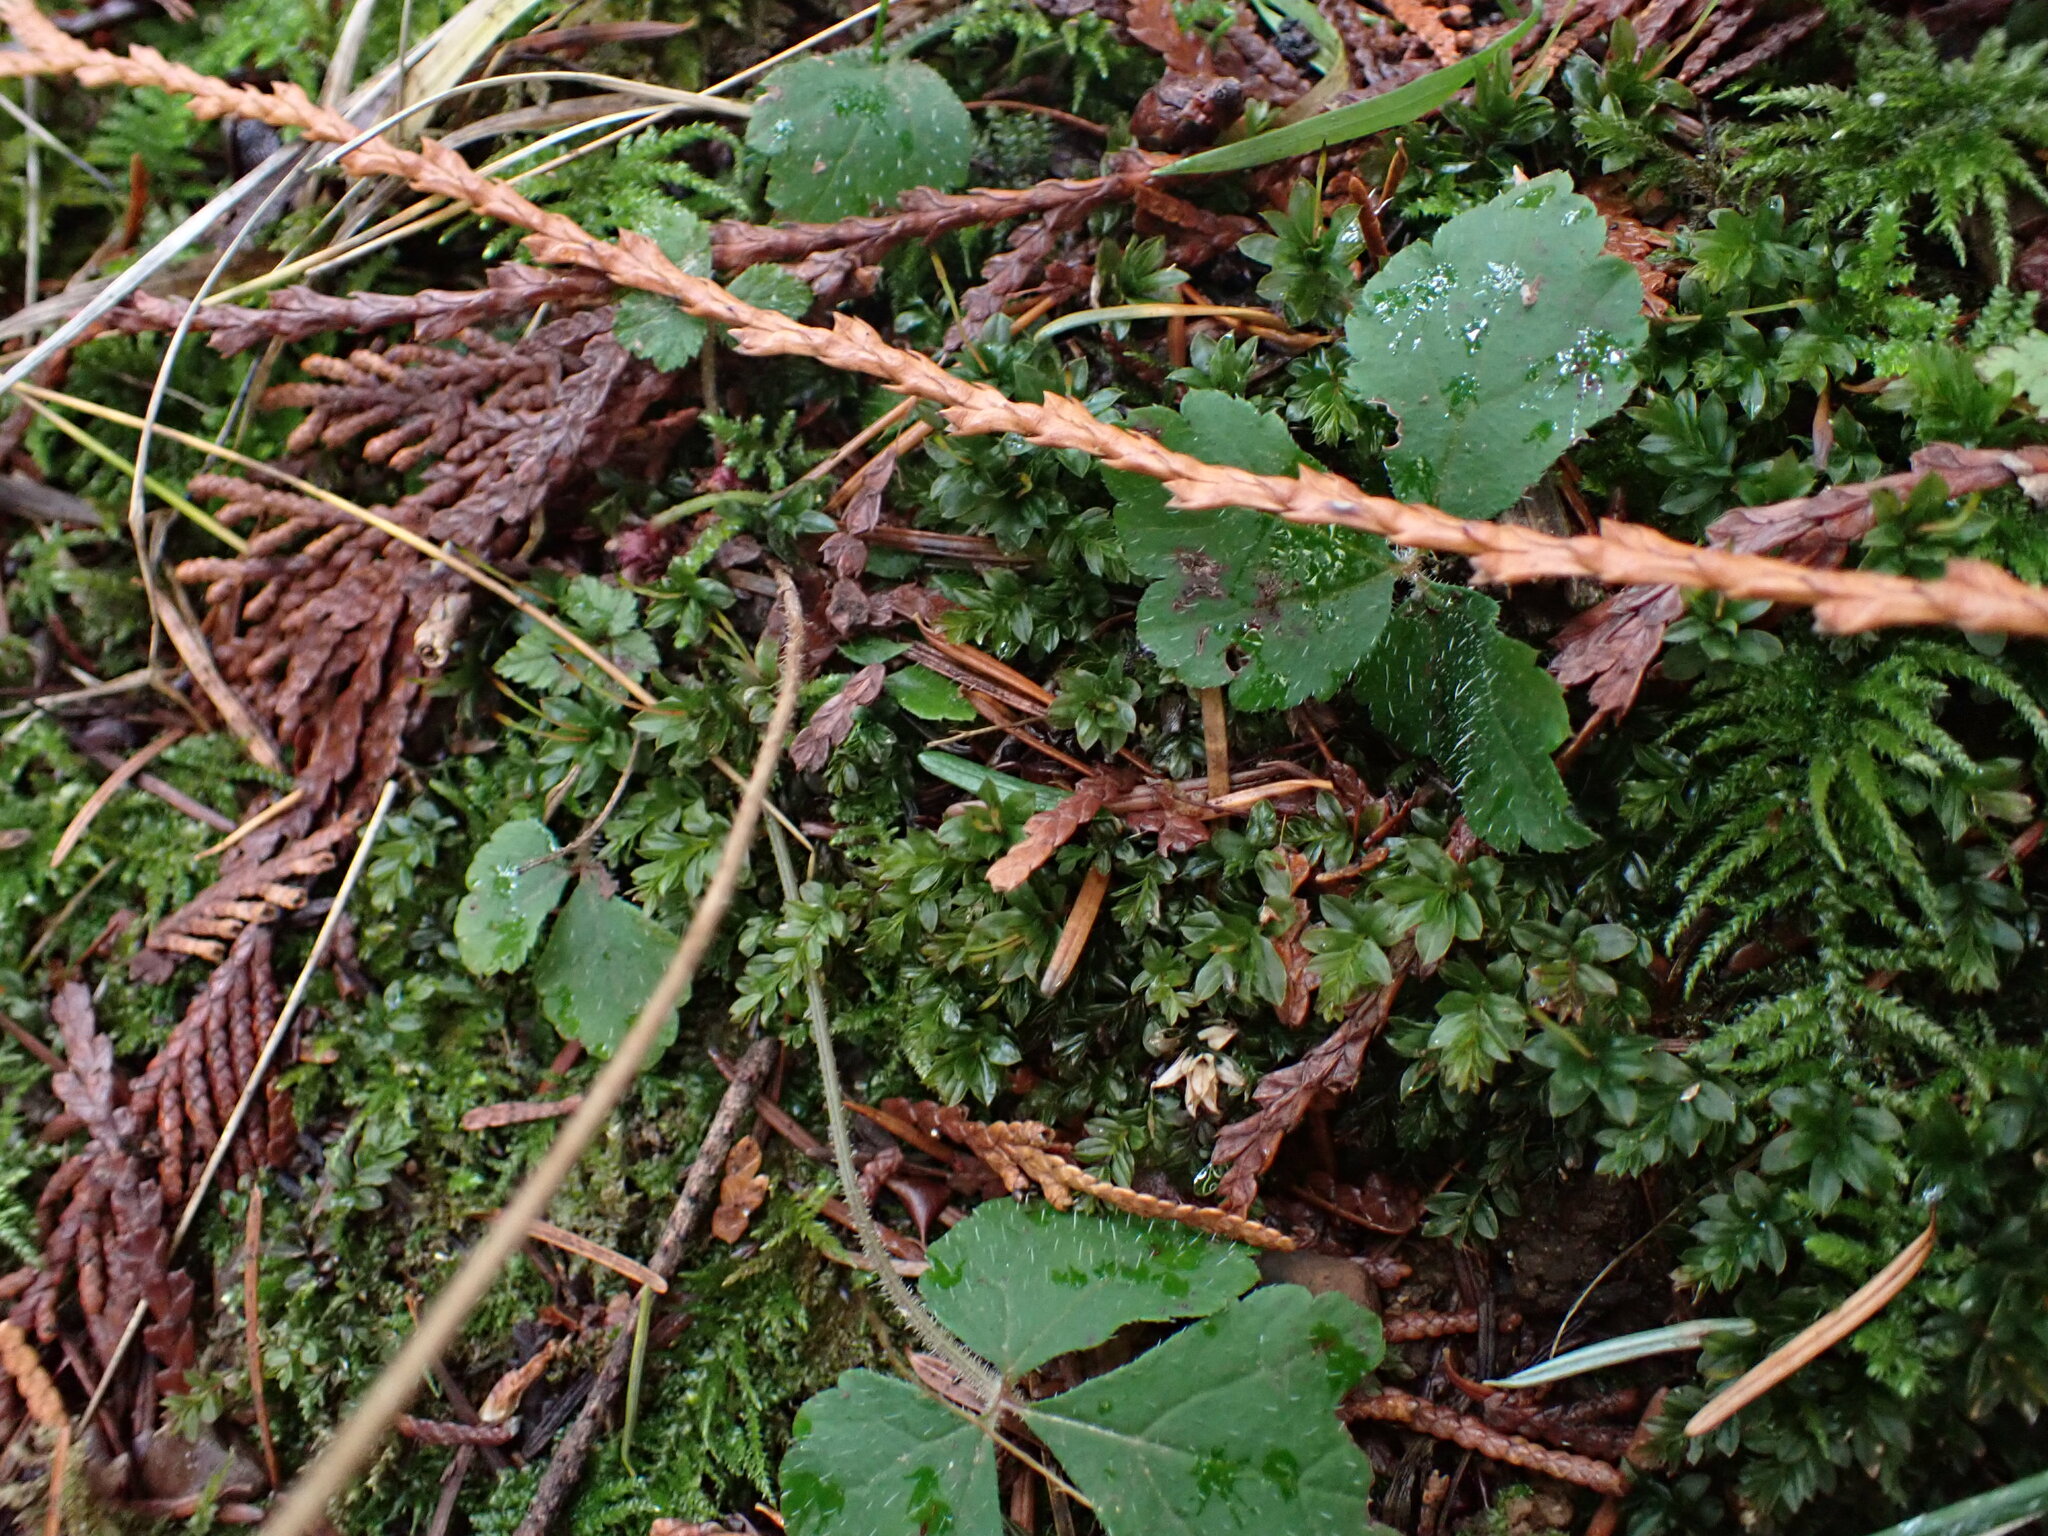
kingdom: Plantae
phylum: Tracheophyta
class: Magnoliopsida
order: Saxifragales
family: Saxifragaceae
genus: Tiarella
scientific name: Tiarella trifoliata
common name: Sugar-scoop
